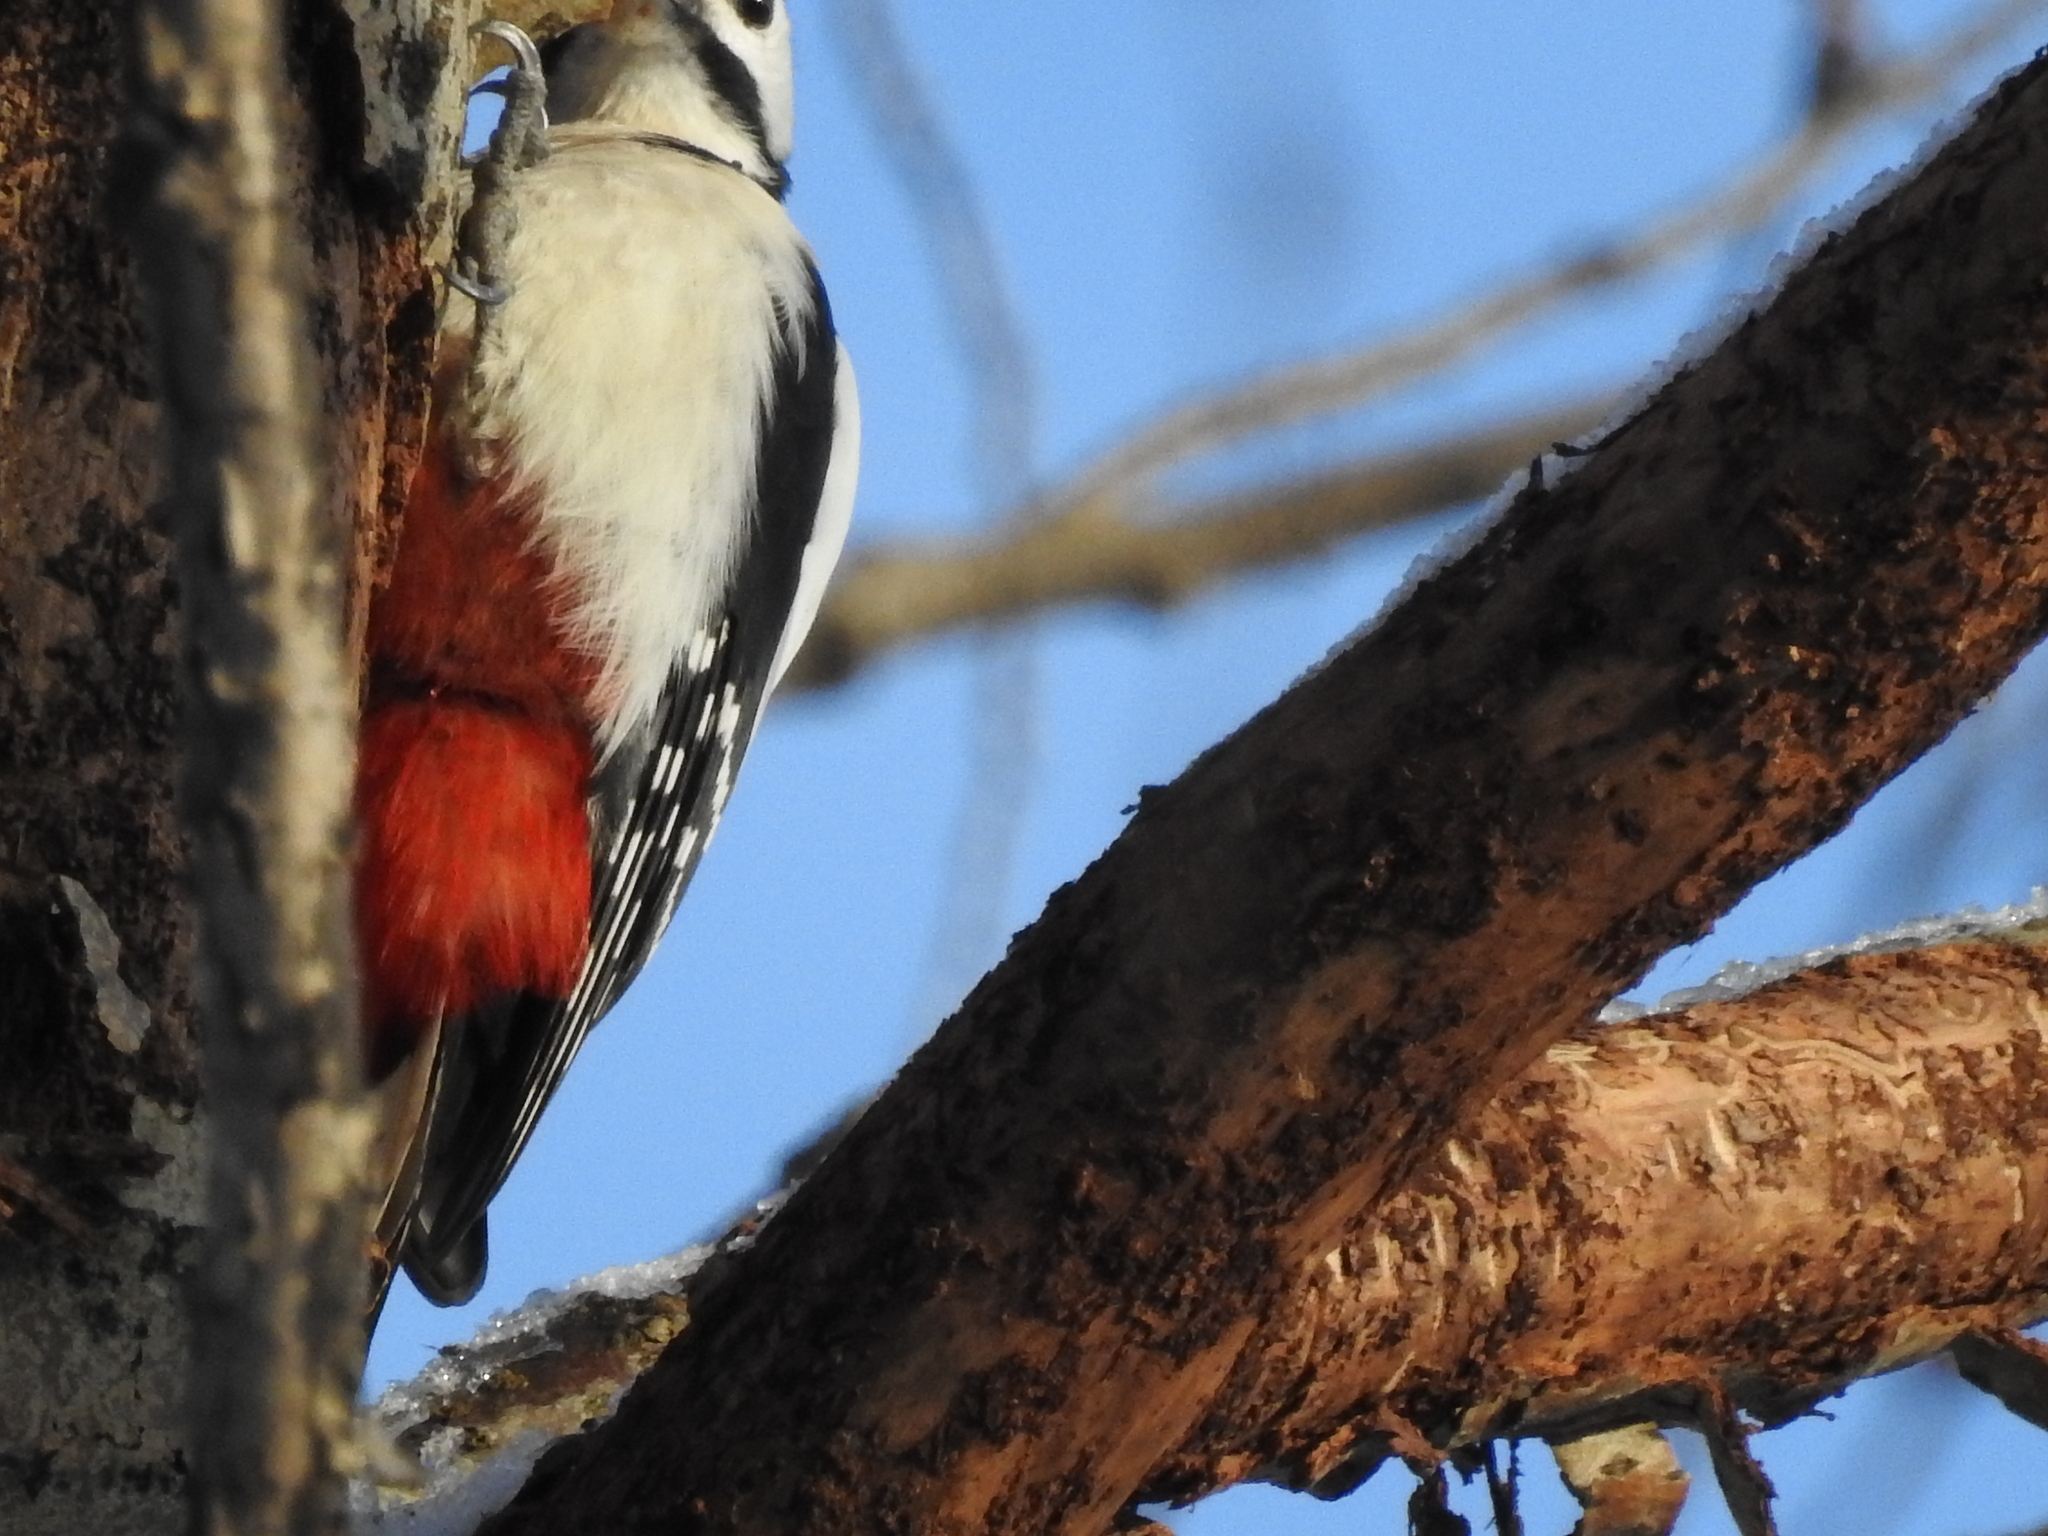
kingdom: Animalia
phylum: Chordata
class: Aves
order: Piciformes
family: Picidae
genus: Dendrocopos
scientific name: Dendrocopos major
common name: Great spotted woodpecker
